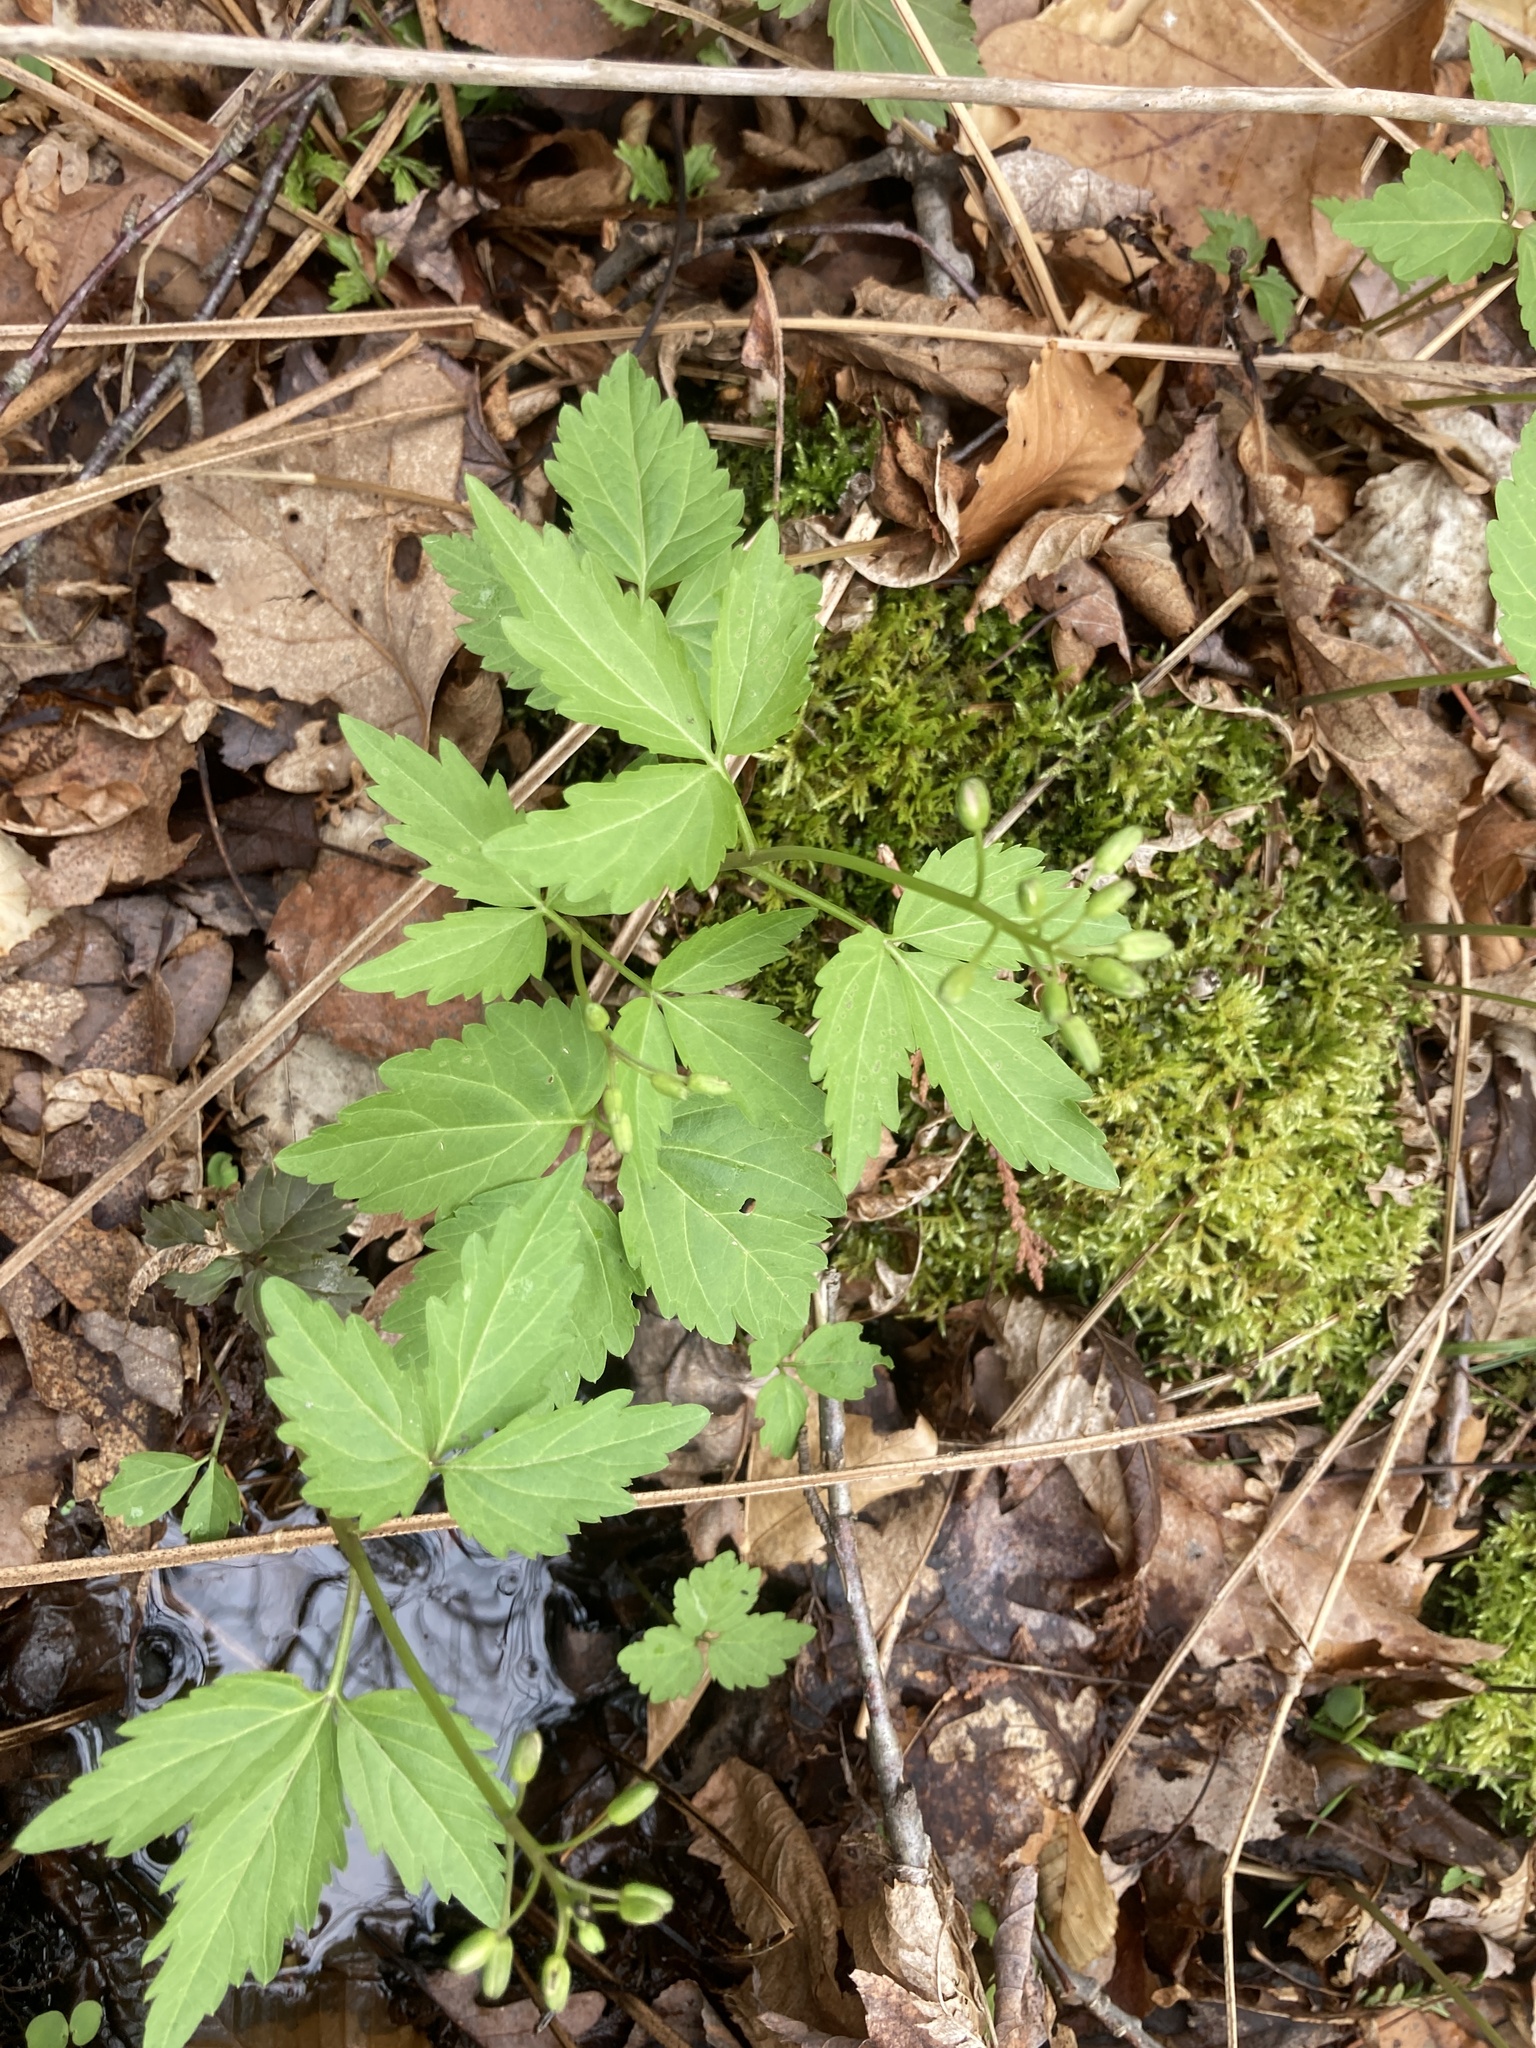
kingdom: Plantae
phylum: Tracheophyta
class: Magnoliopsida
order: Brassicales
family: Brassicaceae
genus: Cardamine
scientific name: Cardamine diphylla
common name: Broad-leaved toothwort
